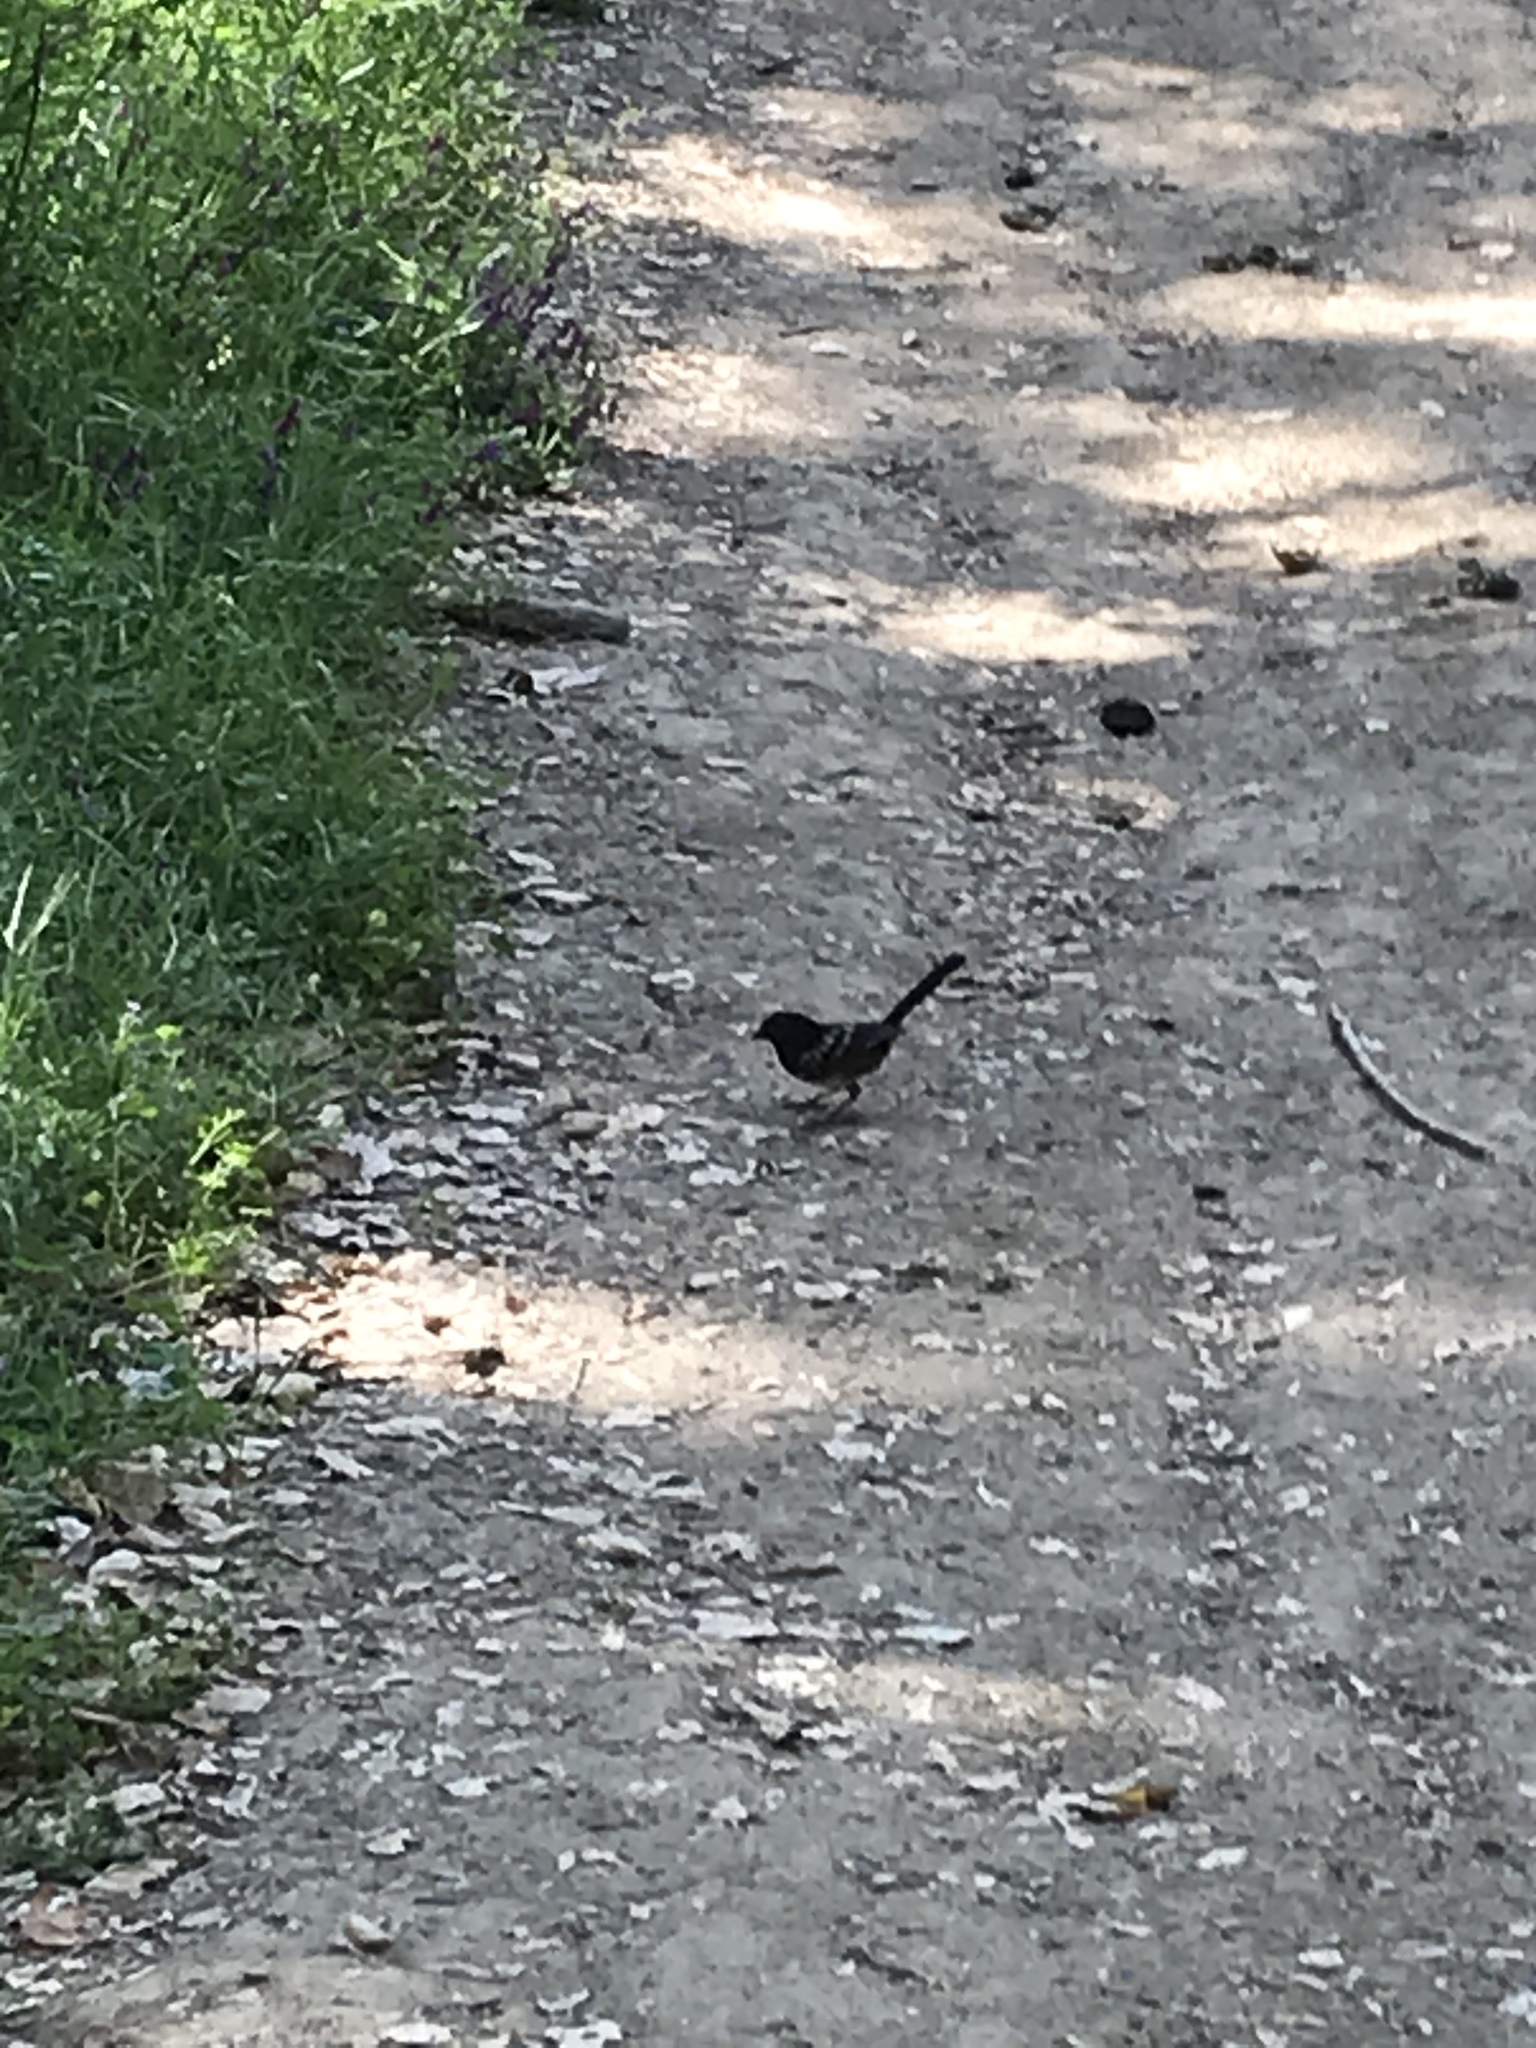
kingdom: Animalia
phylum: Chordata
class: Aves
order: Passeriformes
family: Passerellidae
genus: Pipilo
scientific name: Pipilo maculatus
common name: Spotted towhee
